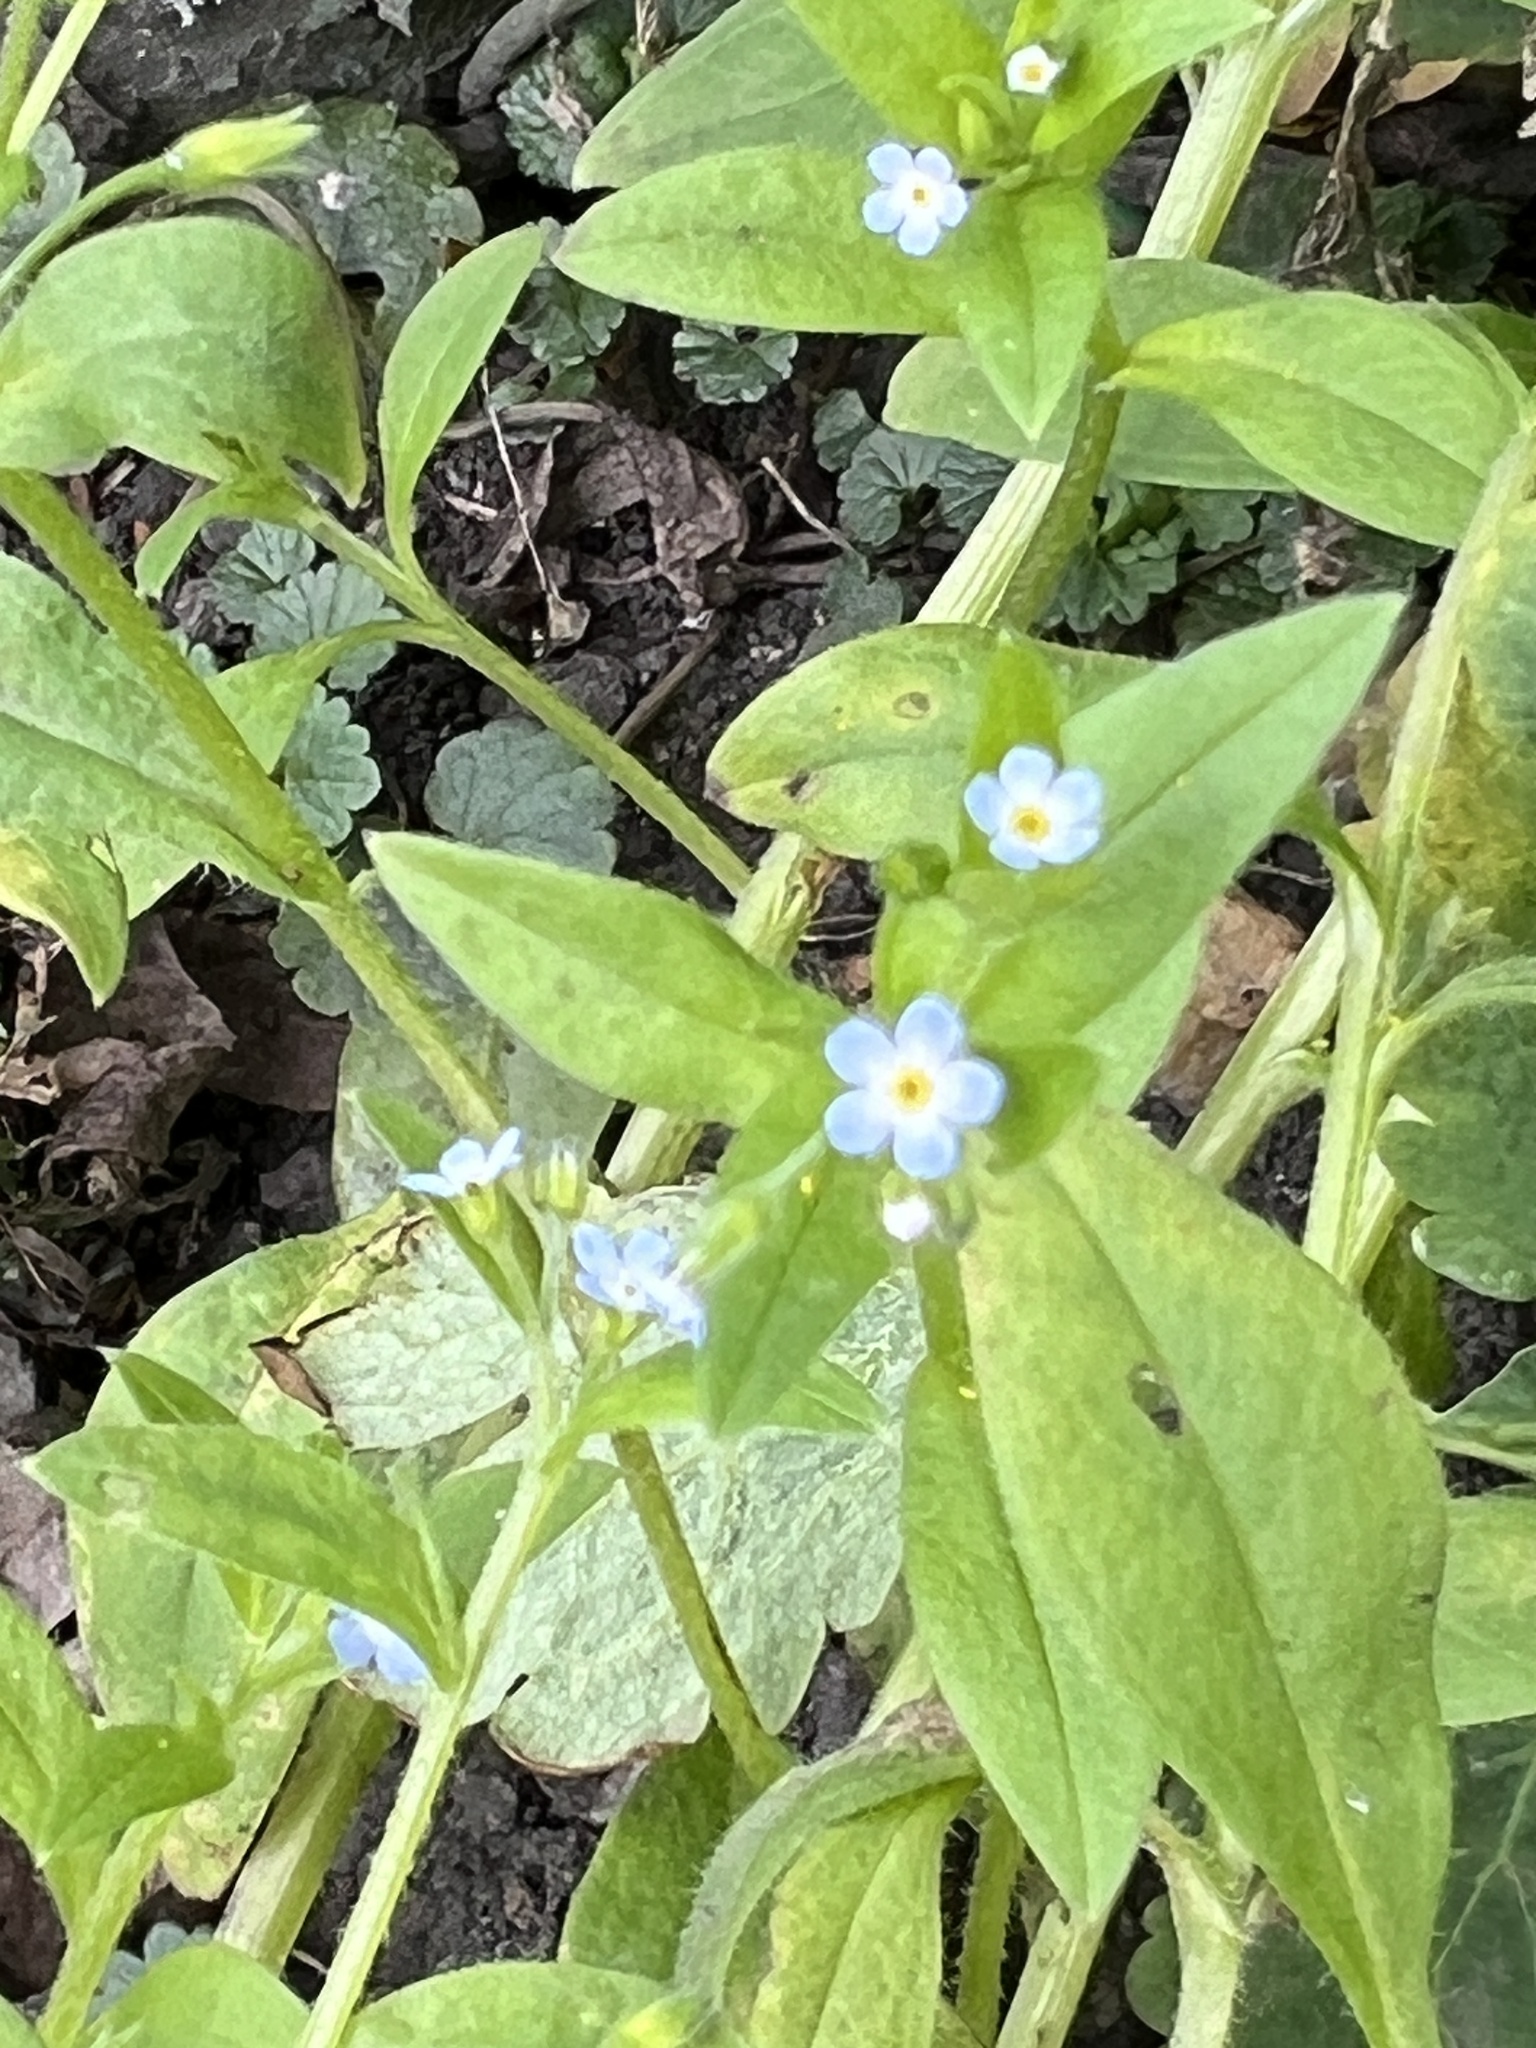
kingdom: Plantae
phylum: Tracheophyta
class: Magnoliopsida
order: Boraginales
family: Boraginaceae
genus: Myosotis
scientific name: Myosotis sparsiflora
